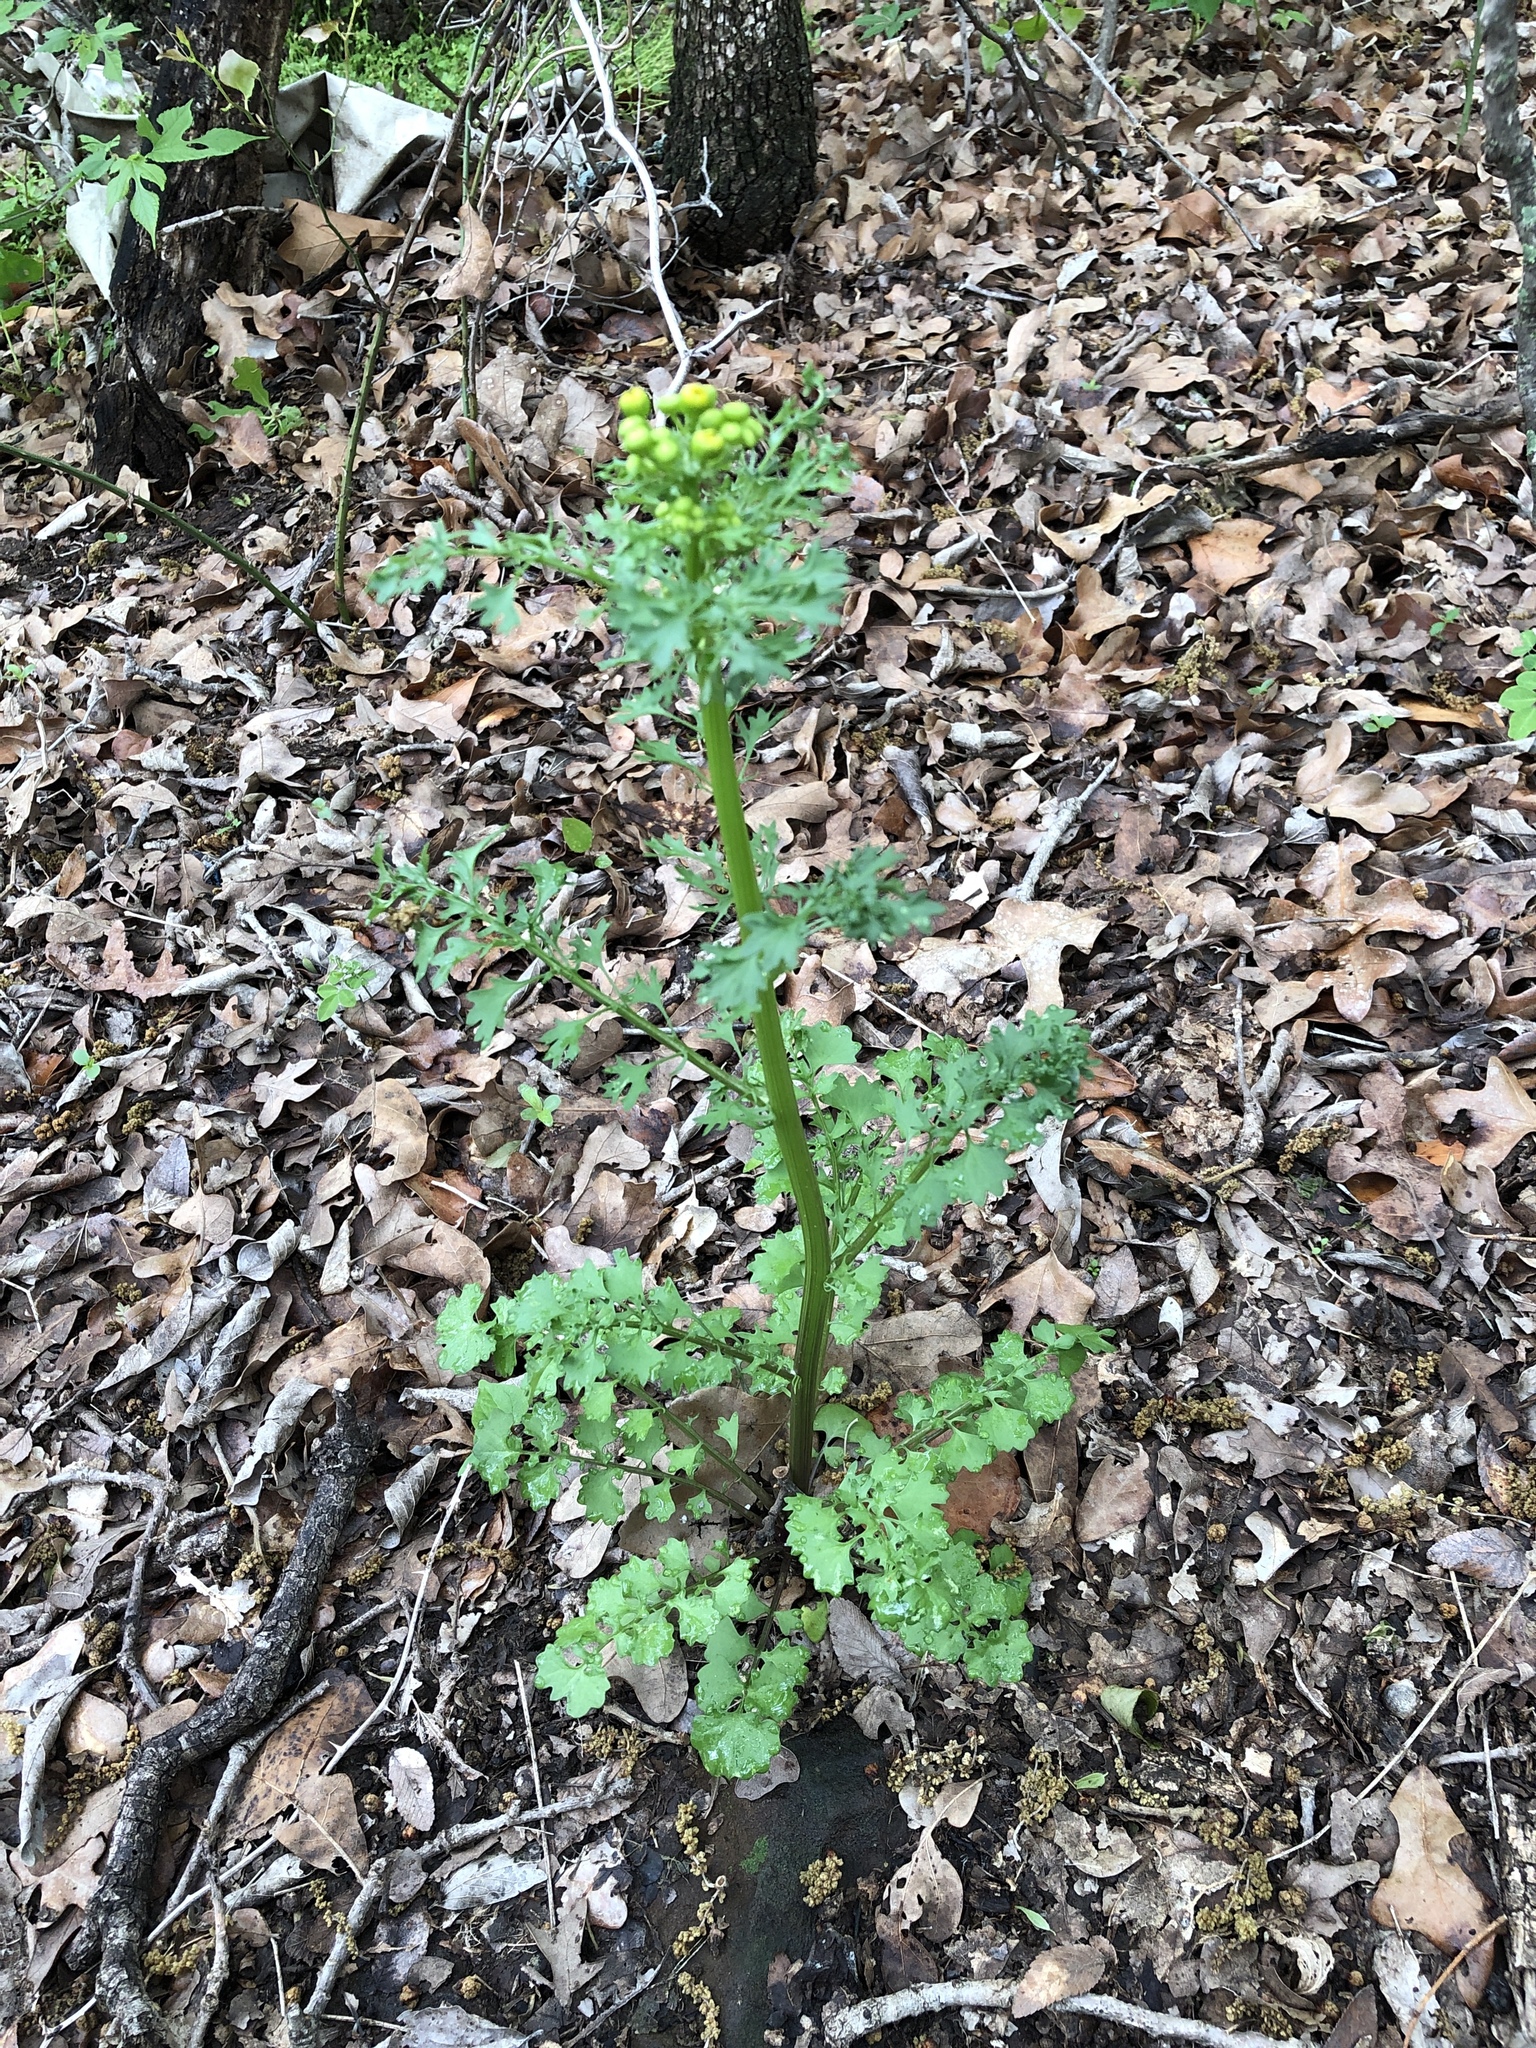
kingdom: Plantae
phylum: Tracheophyta
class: Magnoliopsida
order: Asterales
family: Asteraceae
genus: Packera
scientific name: Packera tampicana
